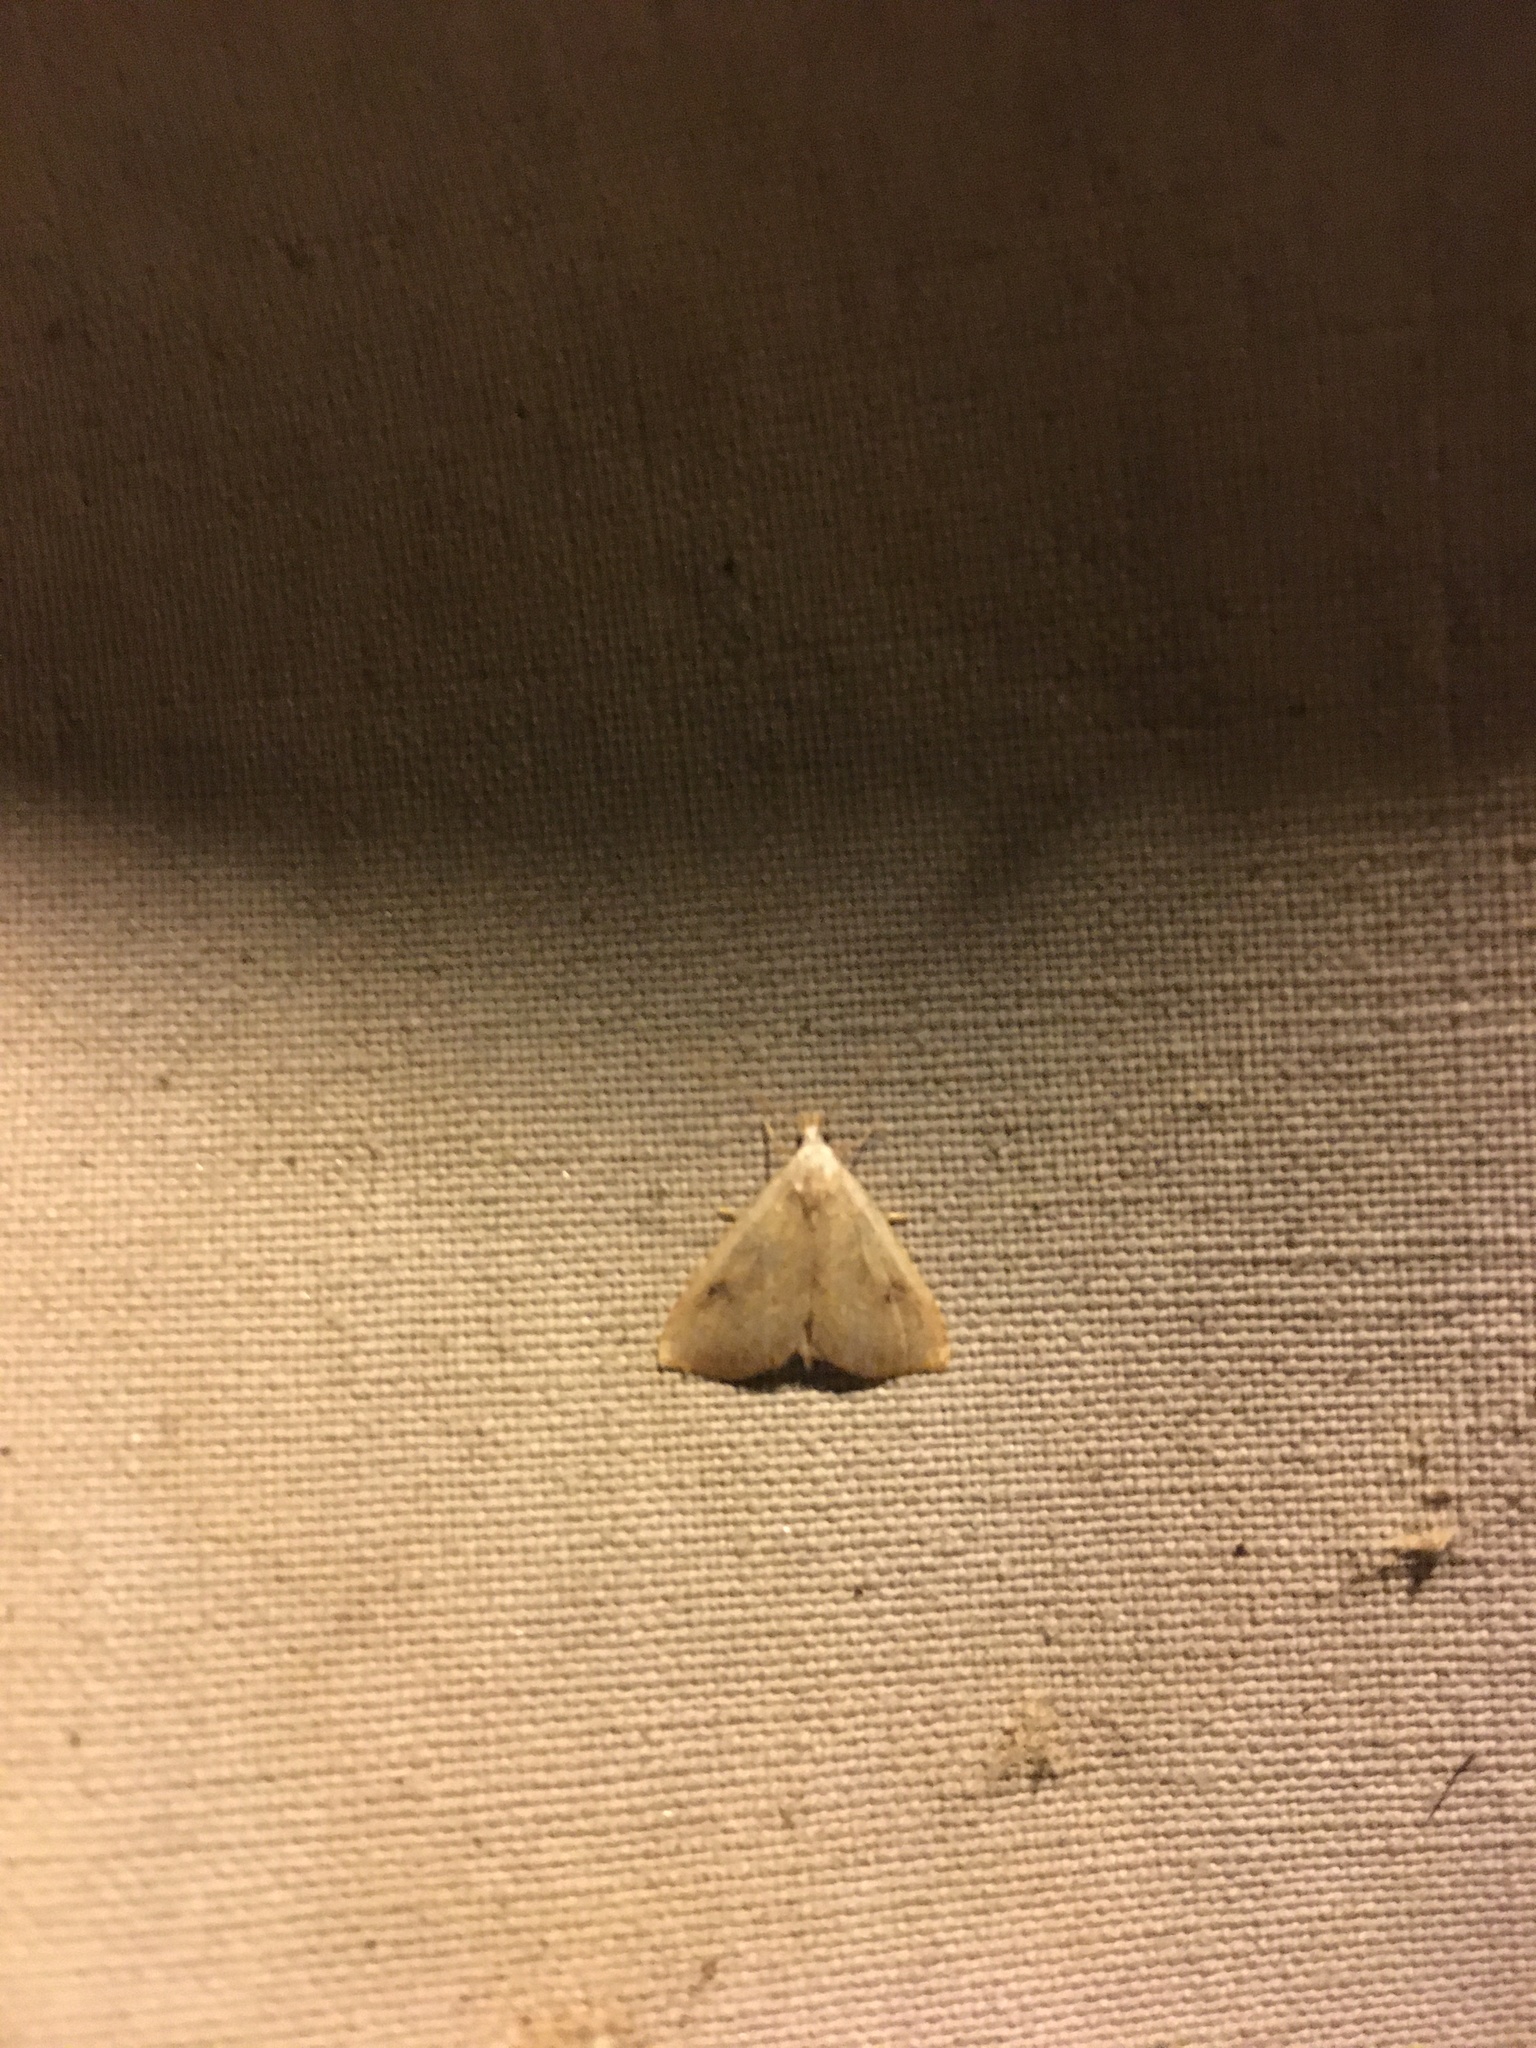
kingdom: Animalia
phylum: Arthropoda
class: Insecta
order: Lepidoptera
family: Erebidae
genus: Rivula
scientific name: Rivula sericealis
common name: Straw dot
